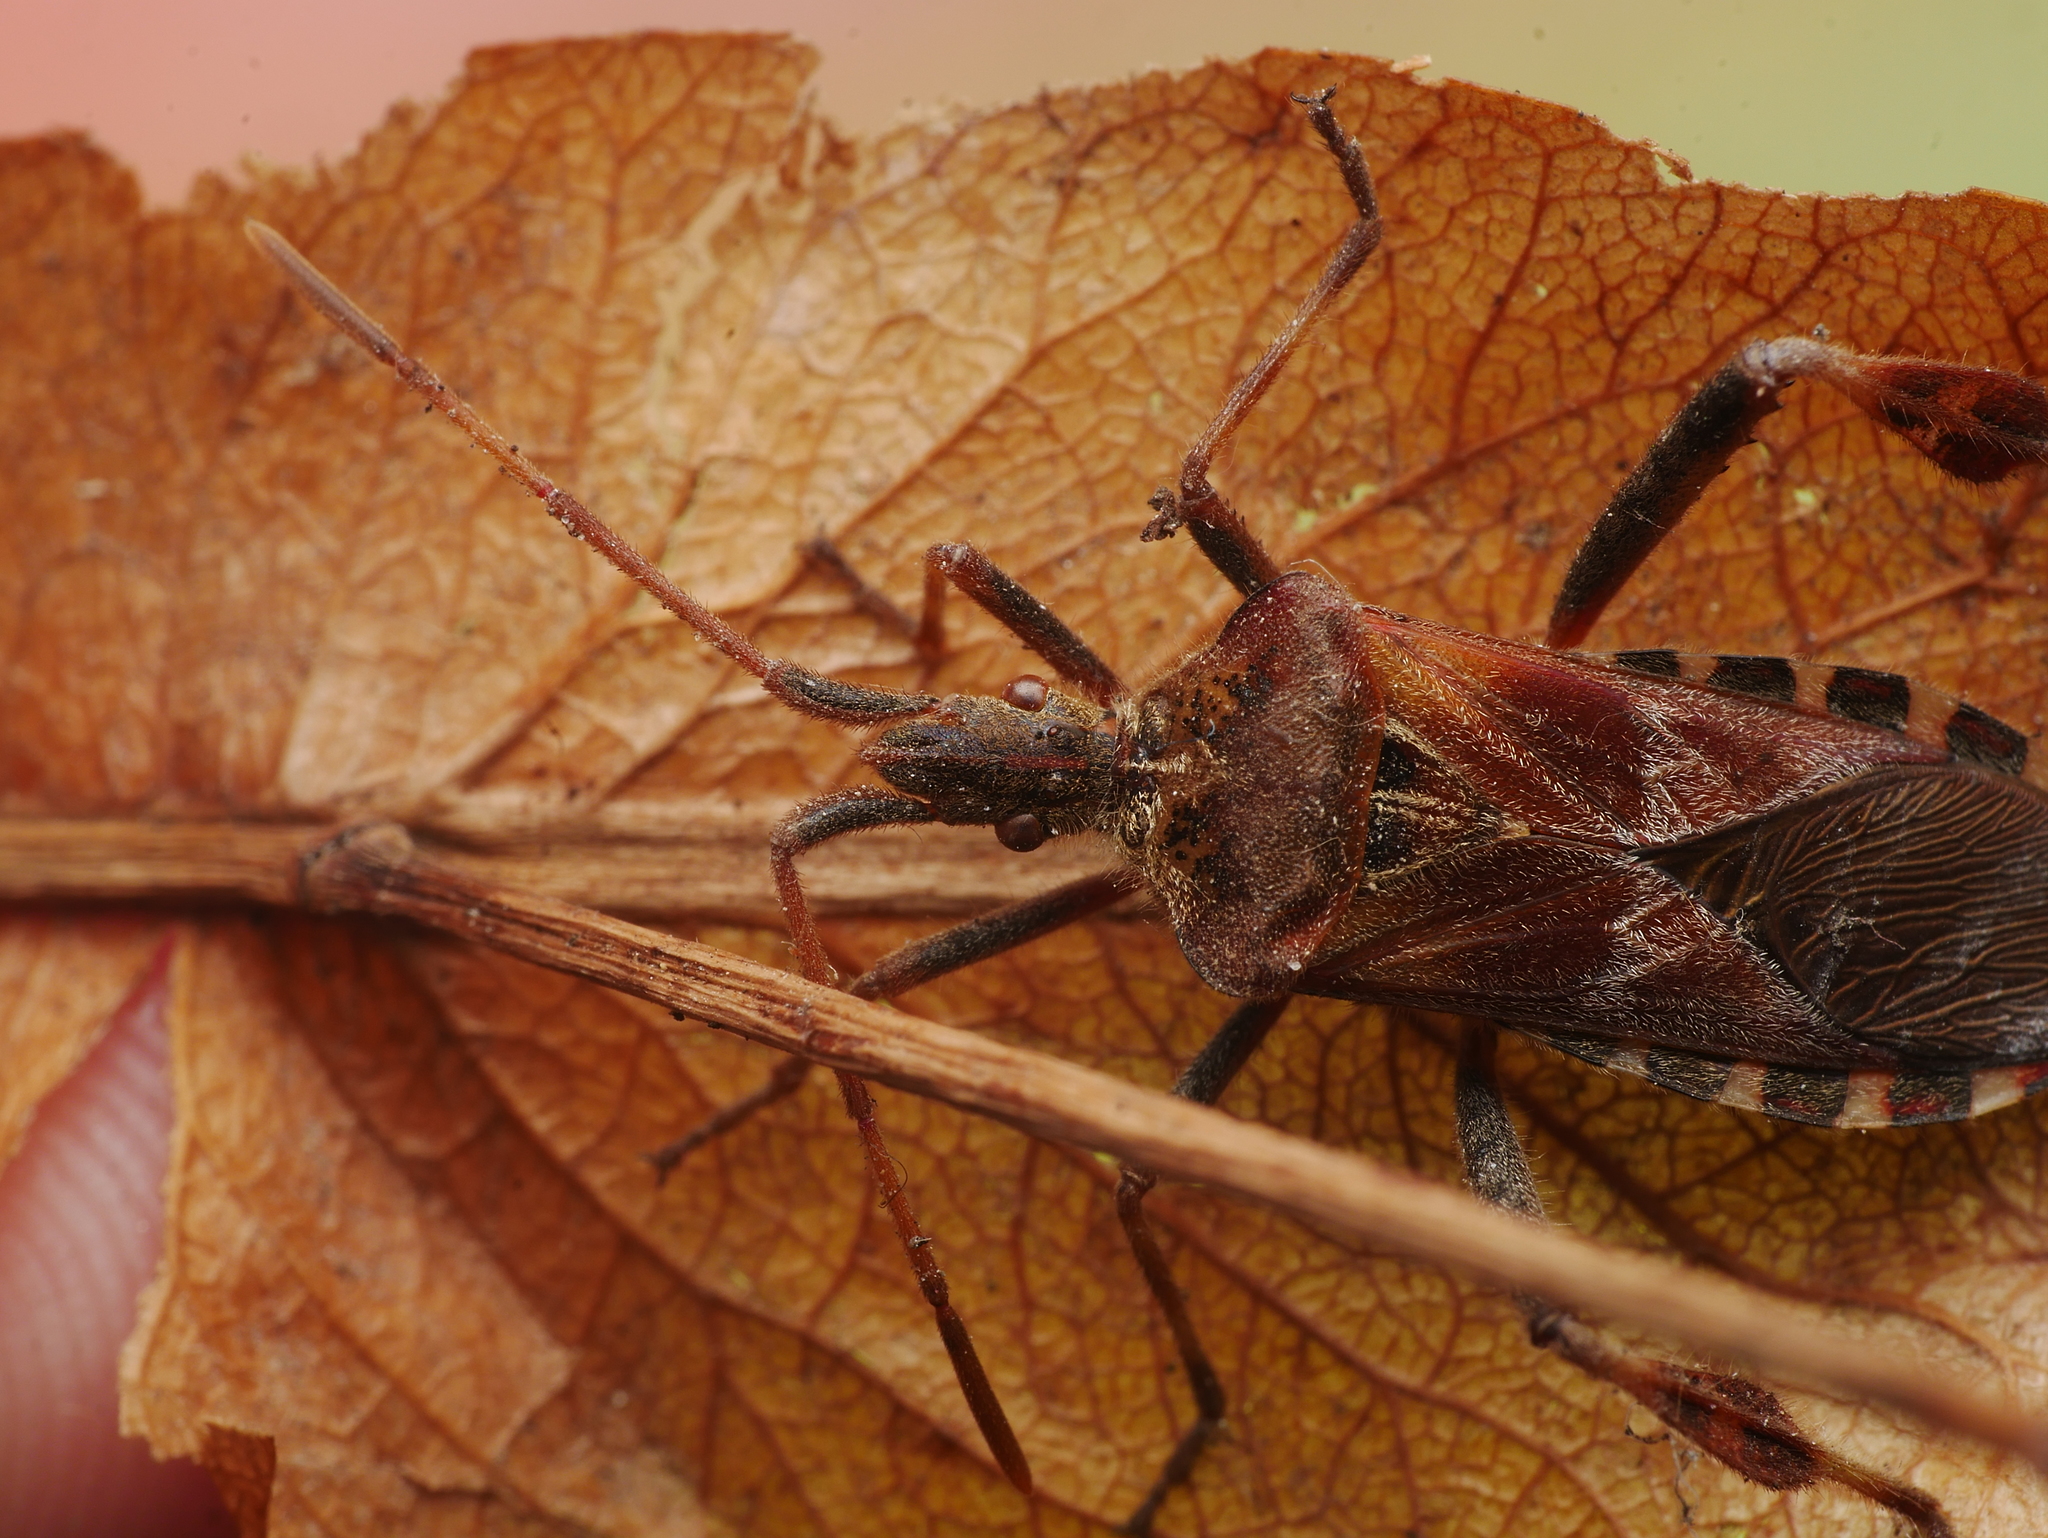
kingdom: Animalia
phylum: Arthropoda
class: Insecta
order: Hemiptera
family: Coreidae
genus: Leptoglossus
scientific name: Leptoglossus occidentalis
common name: Western conifer-seed bug
